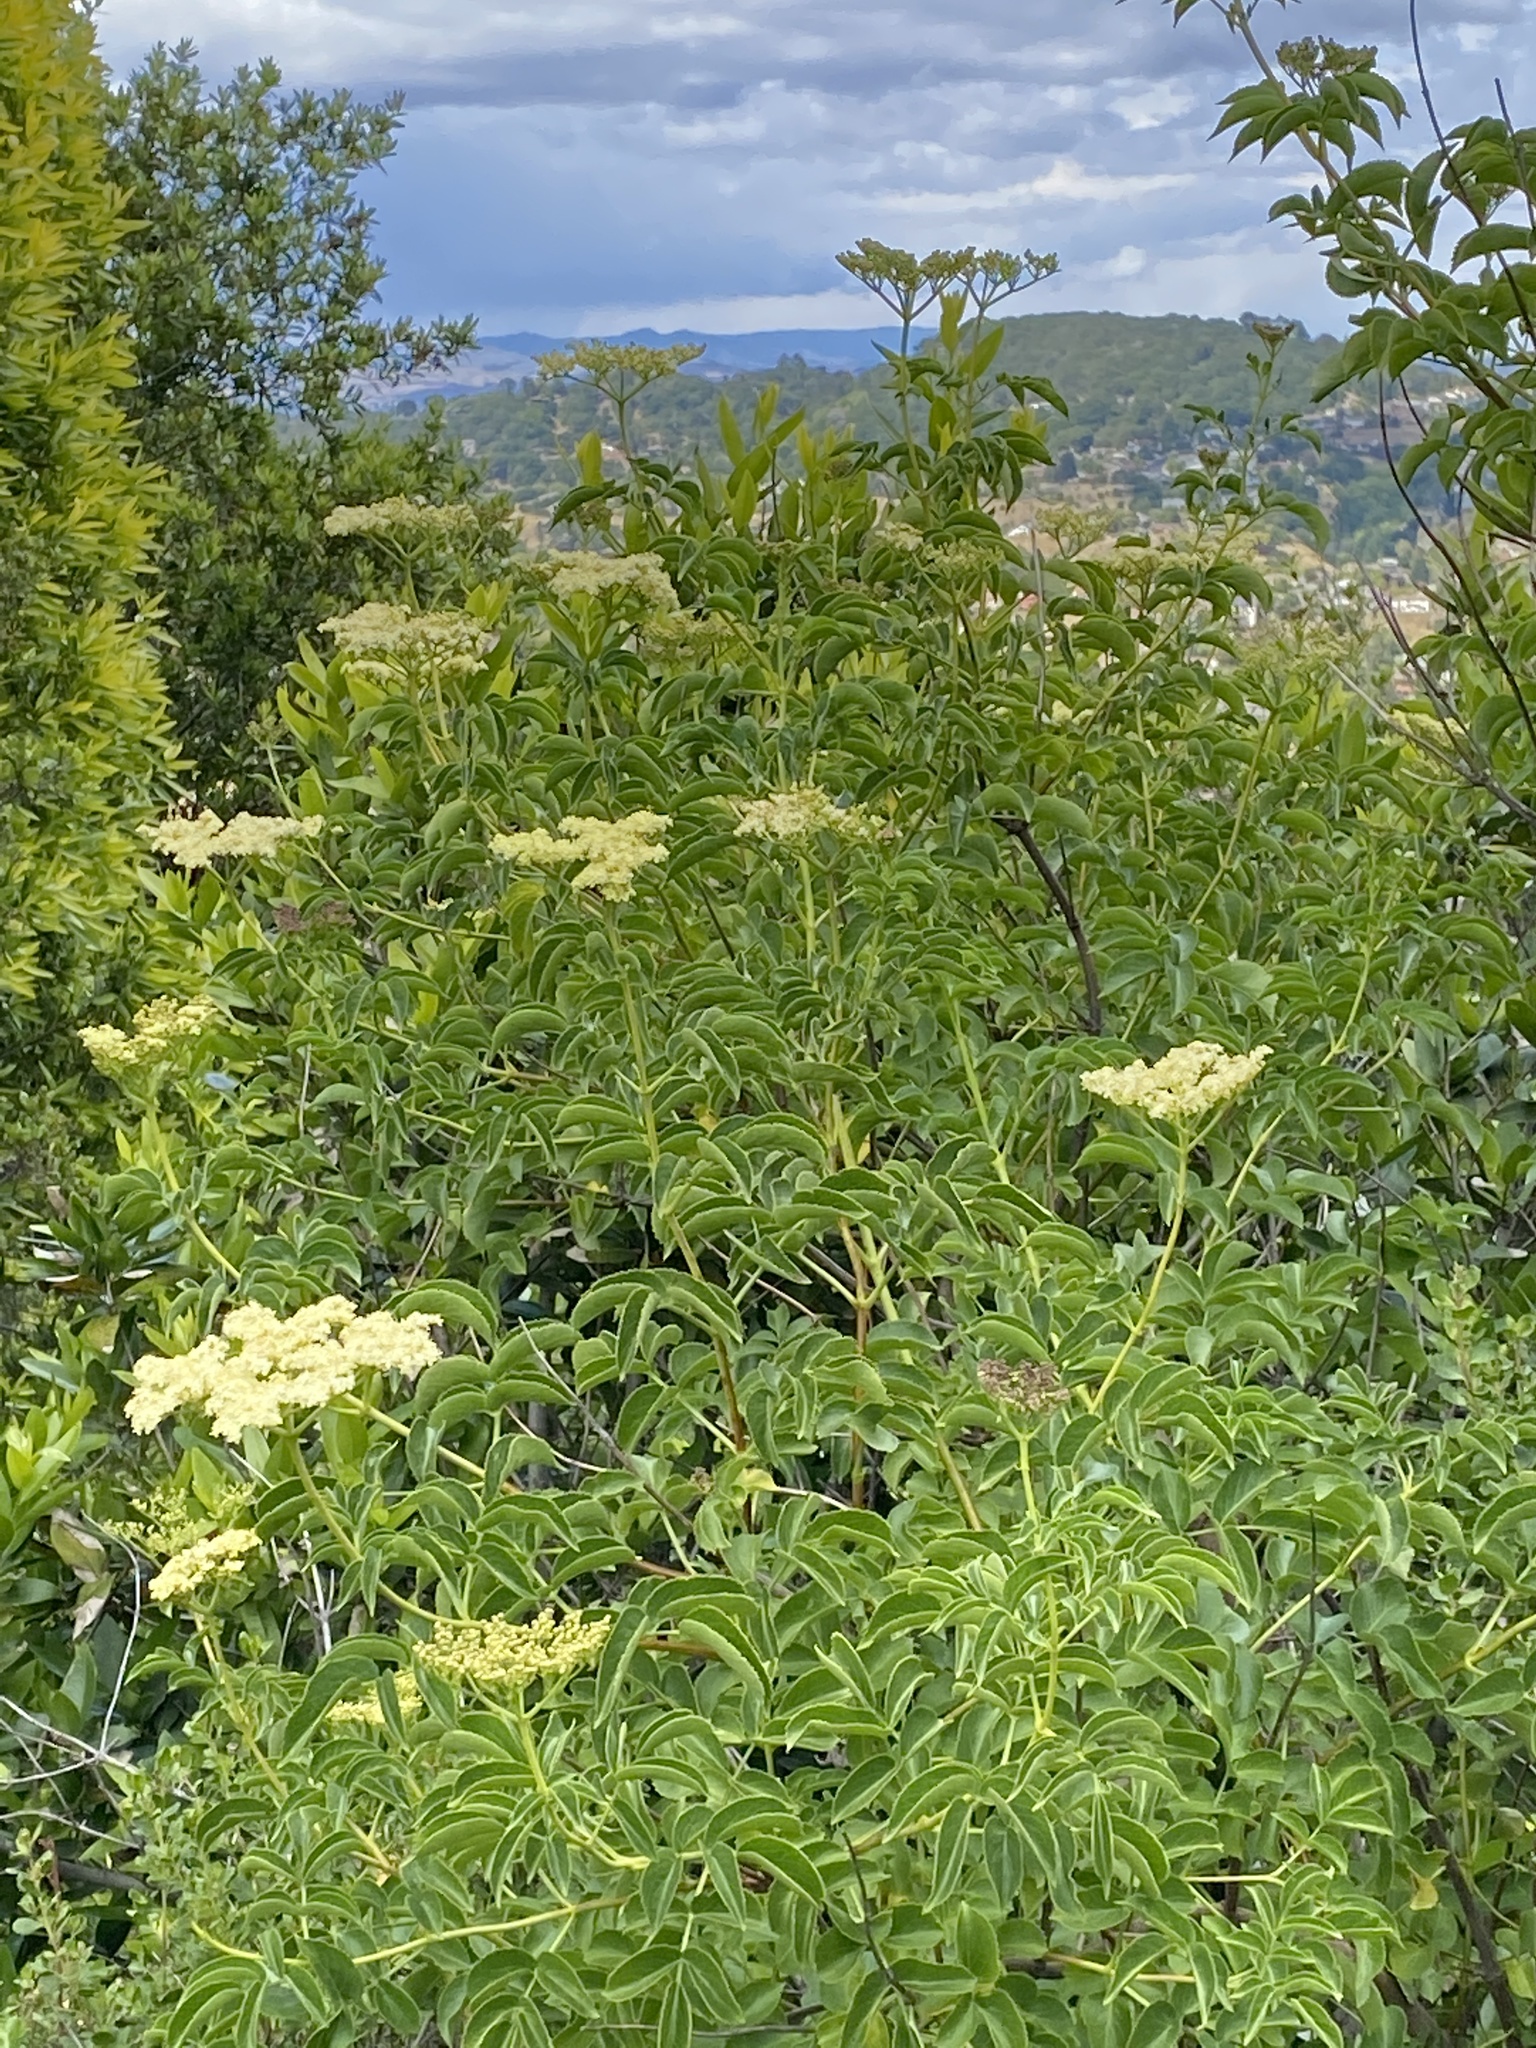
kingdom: Plantae
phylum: Tracheophyta
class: Magnoliopsida
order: Dipsacales
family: Viburnaceae
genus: Sambucus
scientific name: Sambucus cerulea
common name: Blue elder
